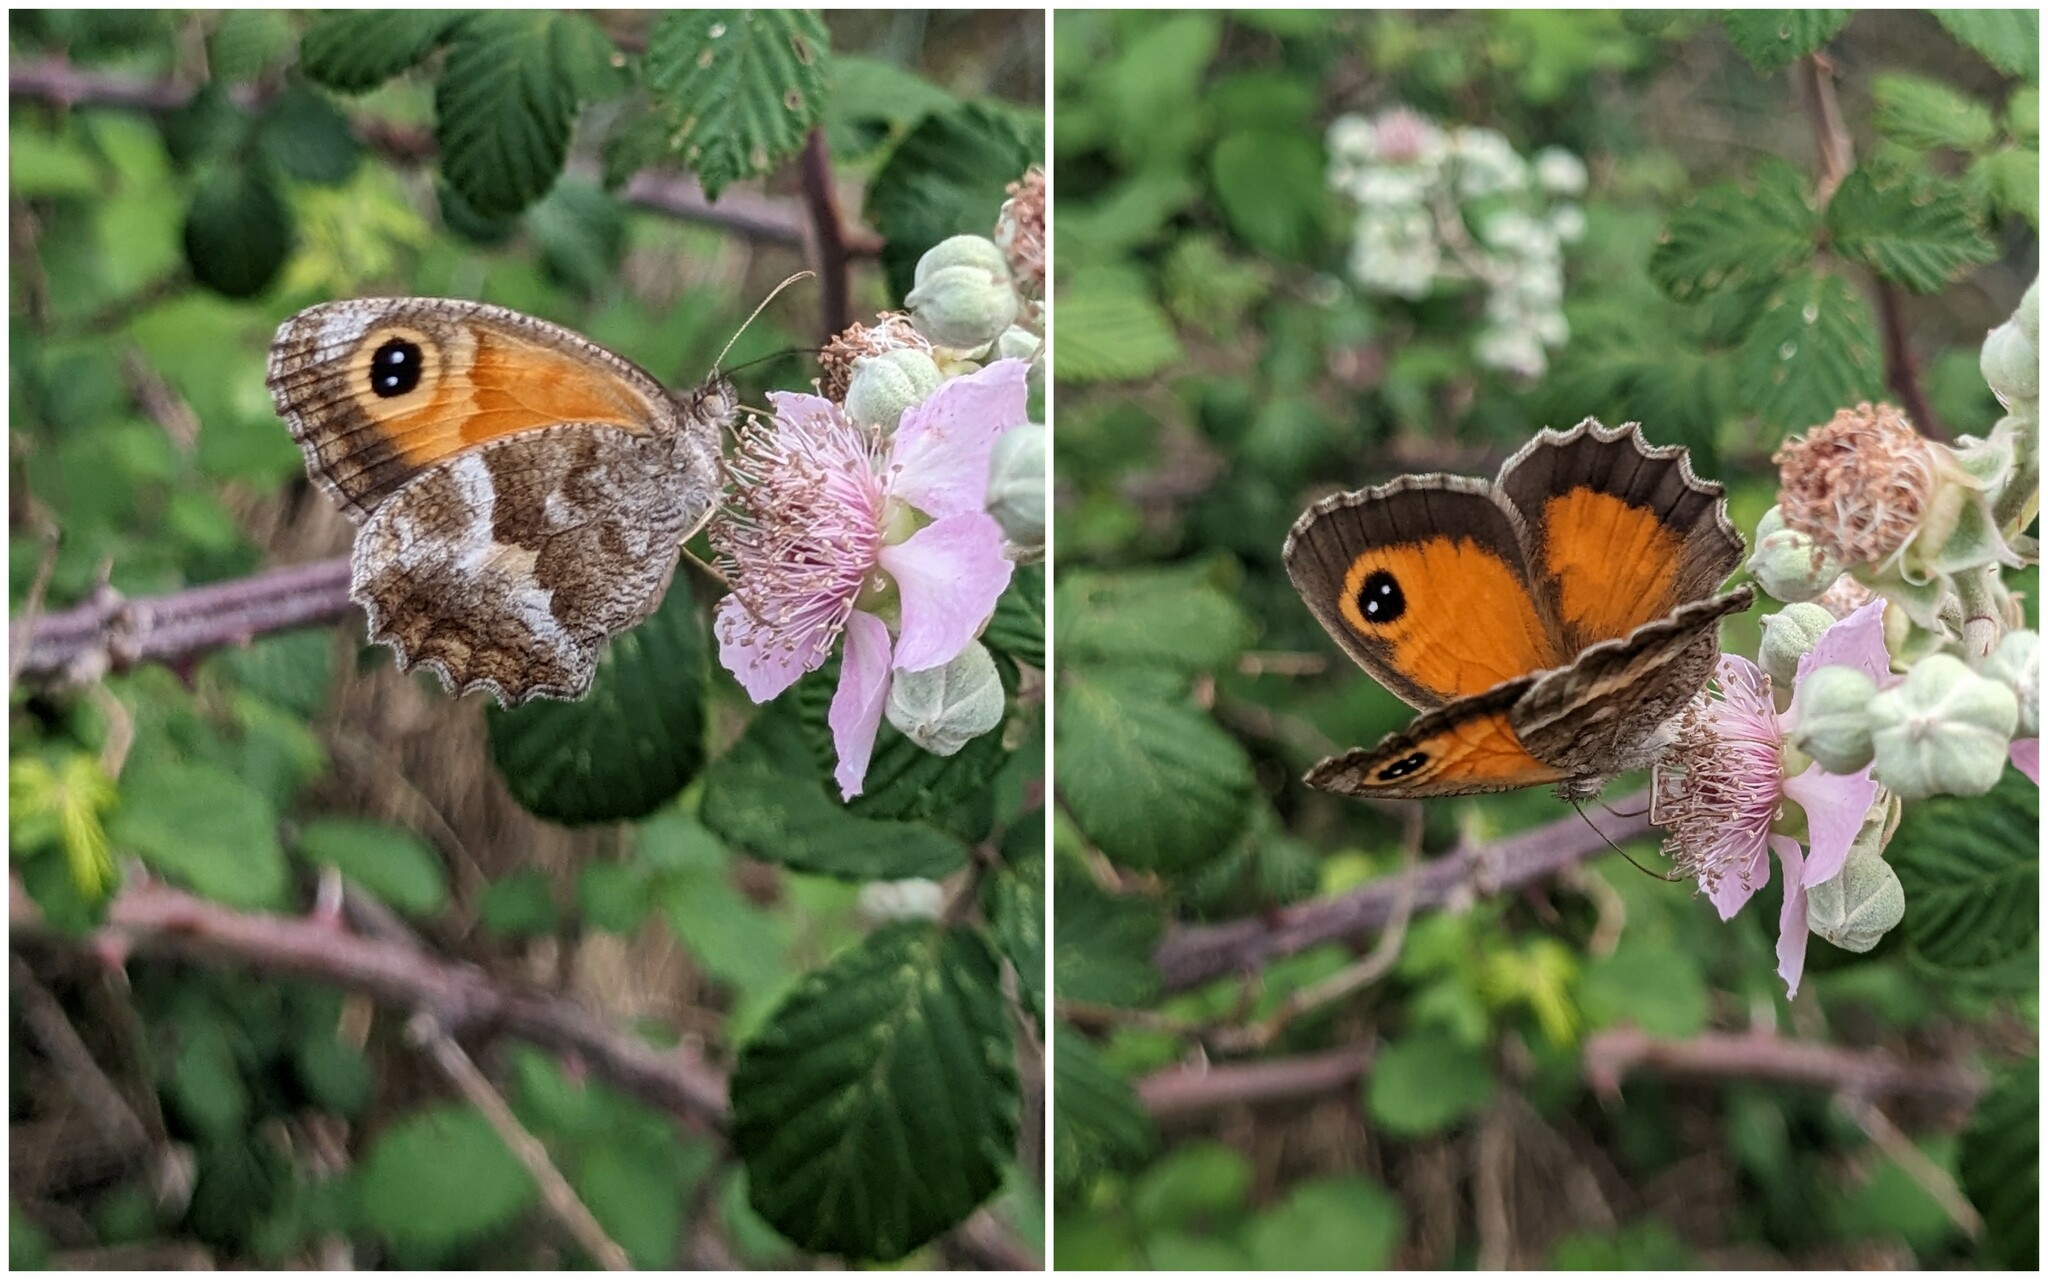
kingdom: Animalia
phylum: Arthropoda
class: Insecta
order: Lepidoptera
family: Nymphalidae
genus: Pyronia
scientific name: Pyronia cecilia
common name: Southern gatekeeper
